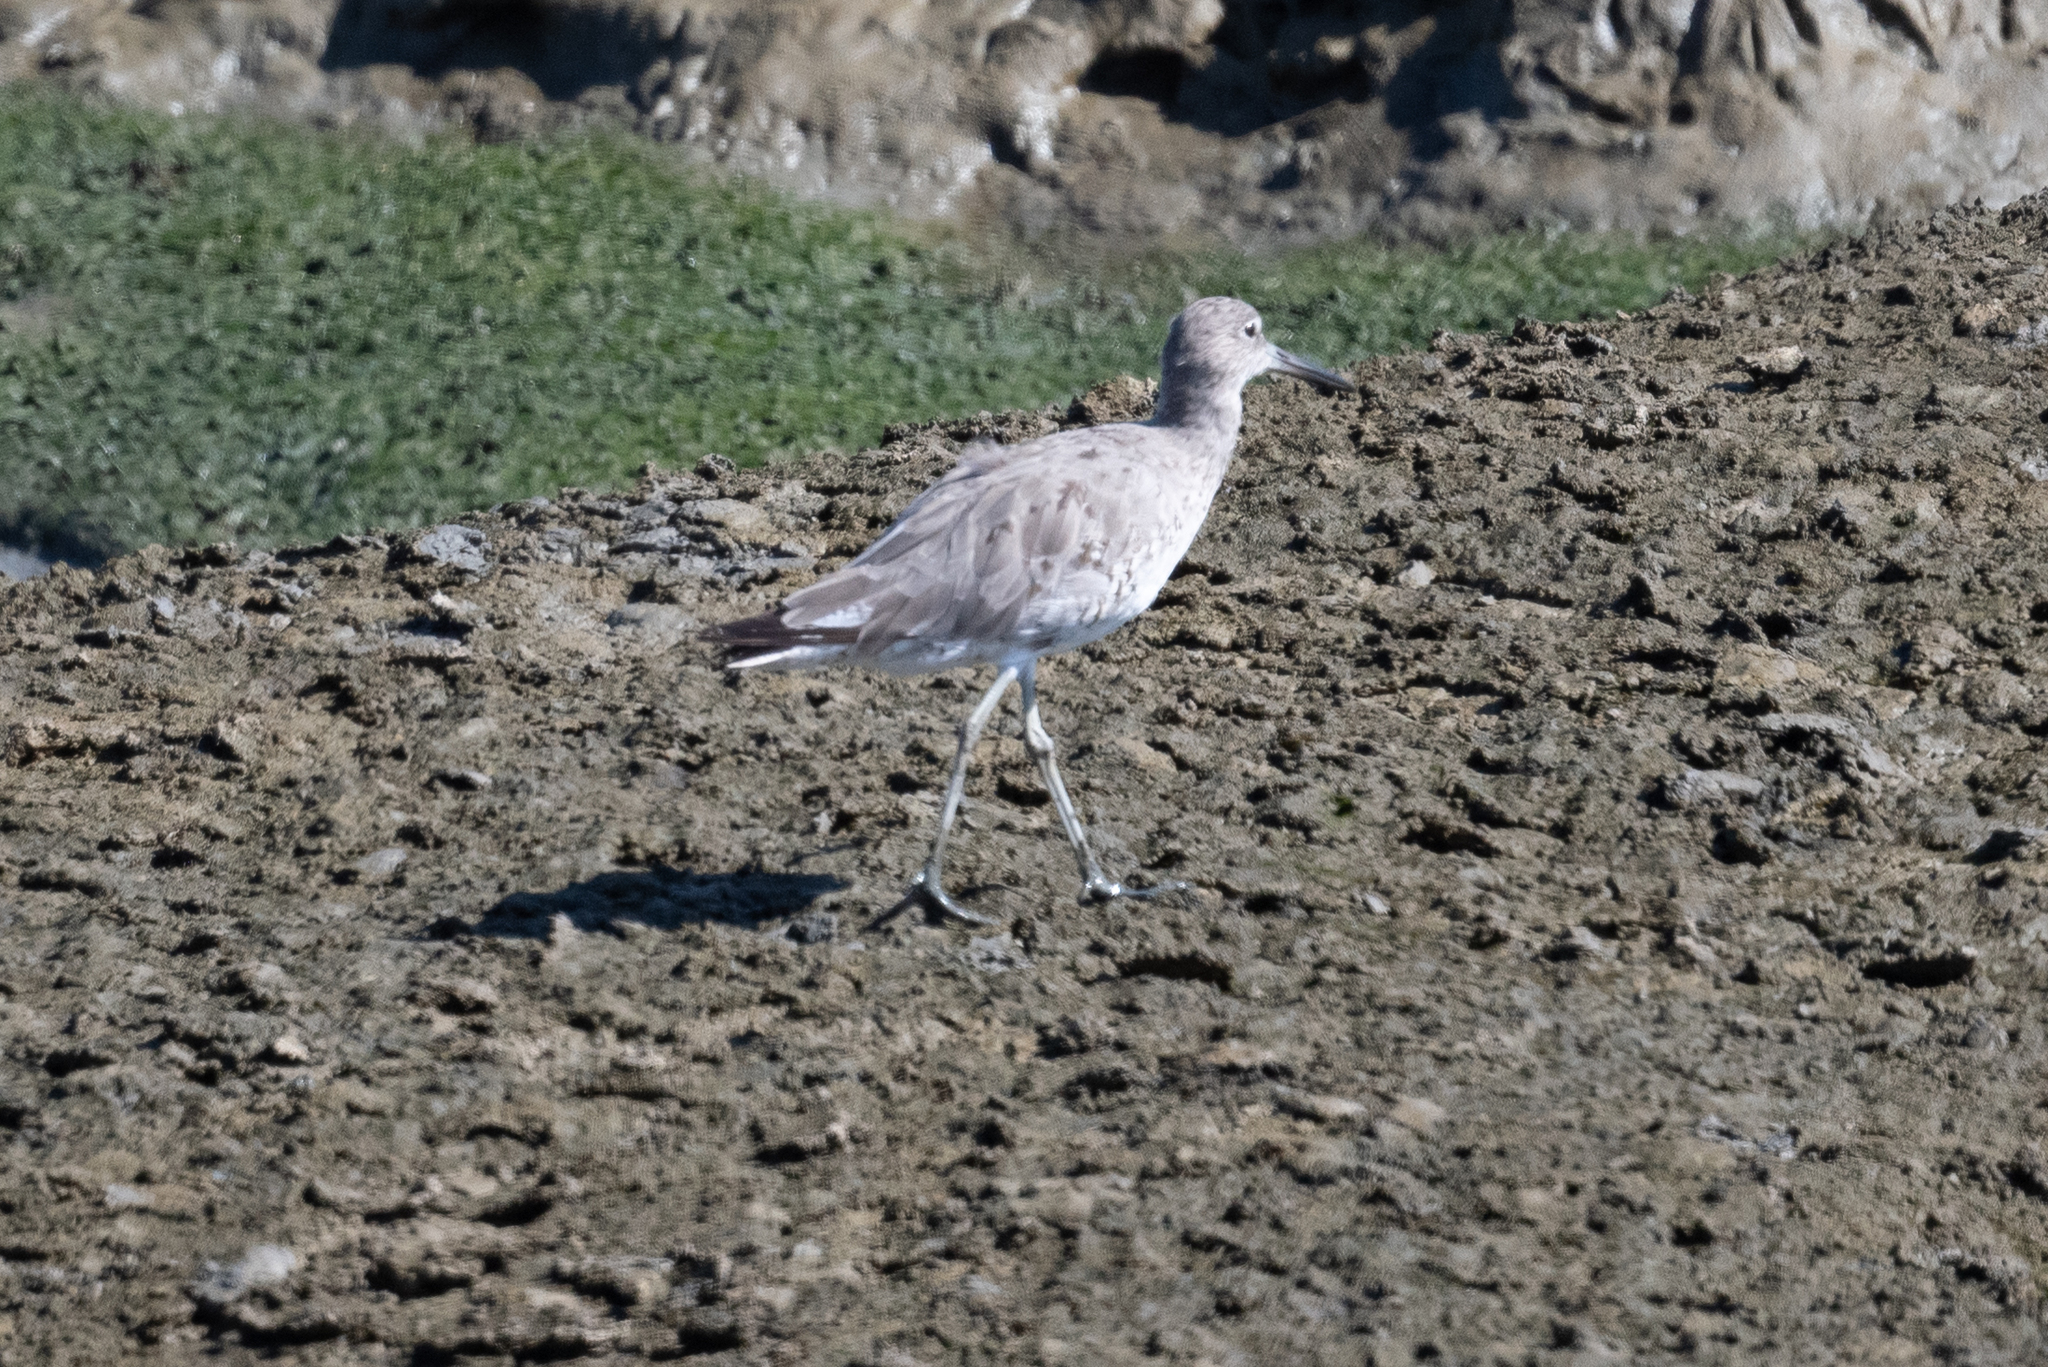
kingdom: Animalia
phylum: Chordata
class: Aves
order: Charadriiformes
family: Scolopacidae
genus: Tringa
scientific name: Tringa semipalmata
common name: Willet
